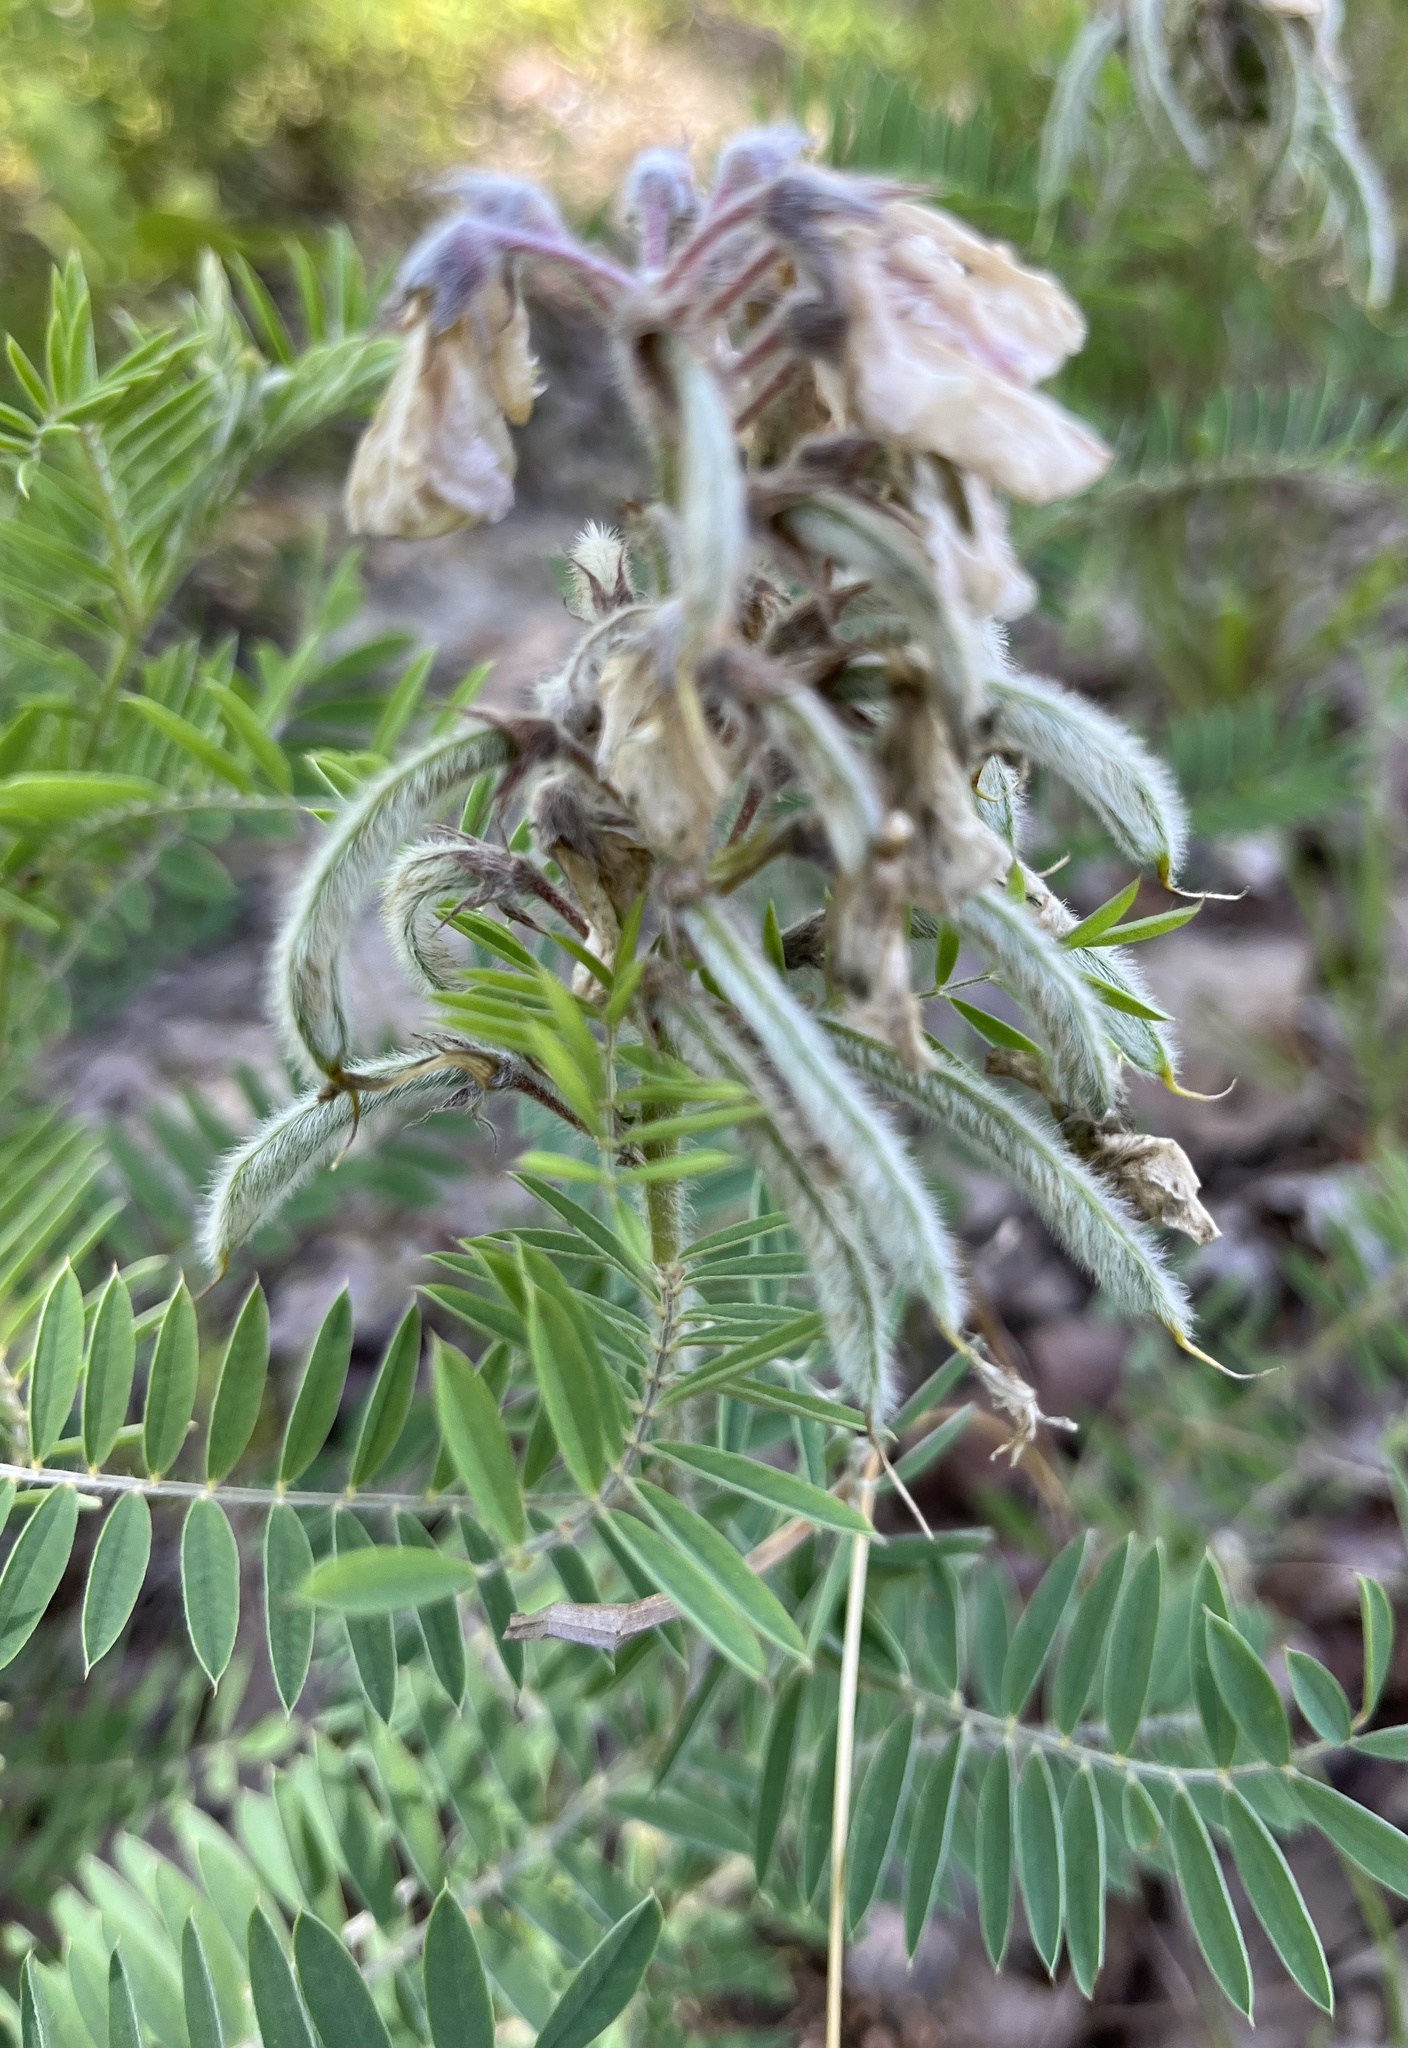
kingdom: Plantae
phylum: Tracheophyta
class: Magnoliopsida
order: Fabales
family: Fabaceae
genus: Tephrosia
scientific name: Tephrosia virginiana
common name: Rabbit-pea
